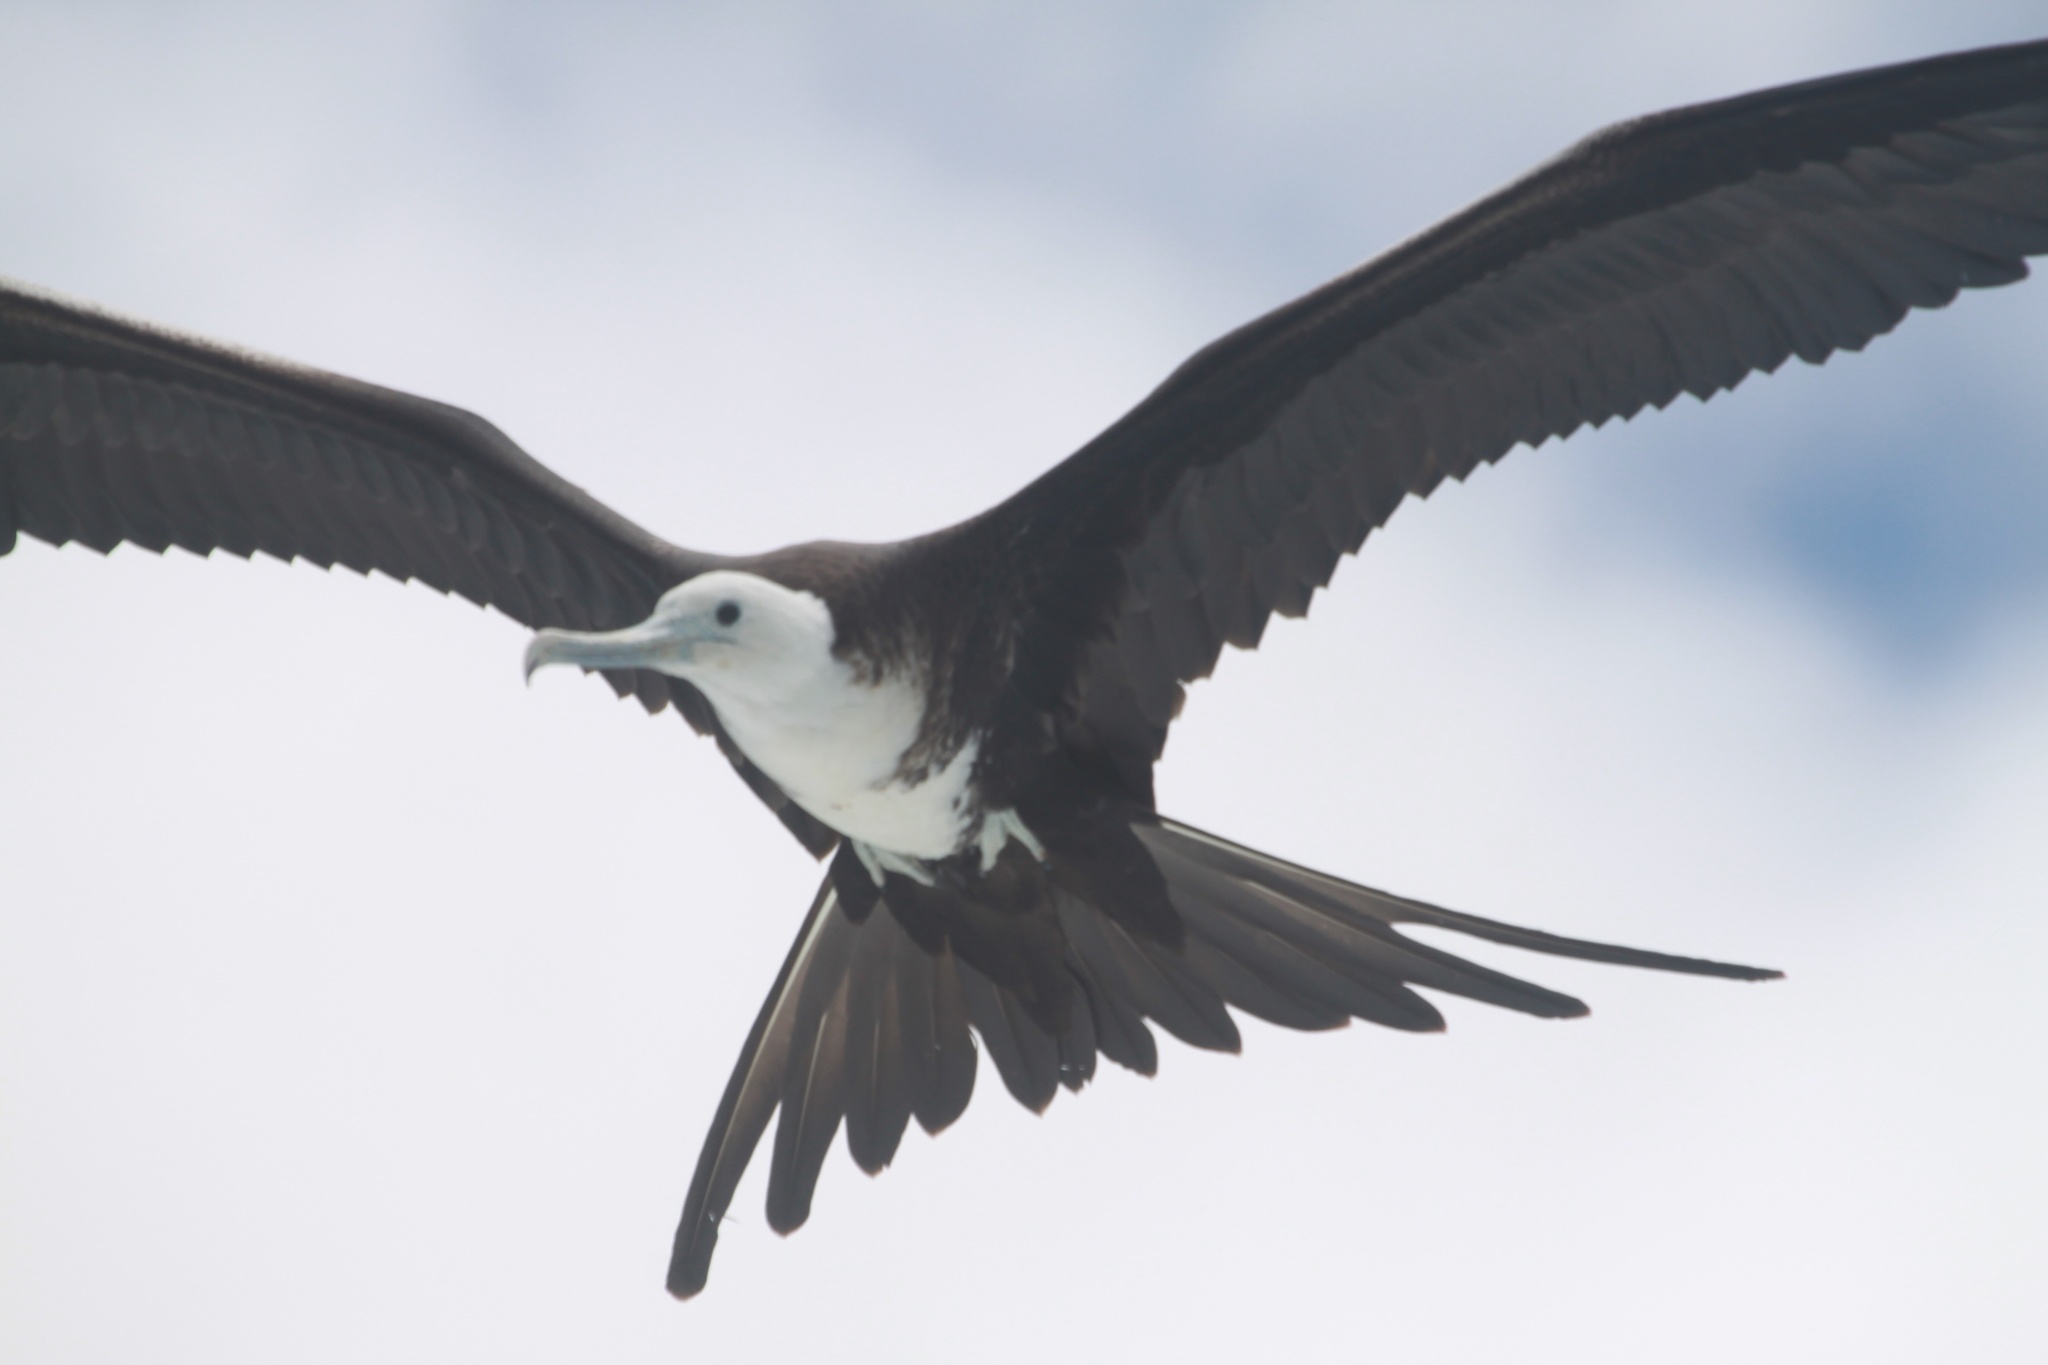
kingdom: Animalia
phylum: Chordata
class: Aves
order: Suliformes
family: Fregatidae
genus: Fregata
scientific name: Fregata magnificens
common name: Magnificent frigatebird
